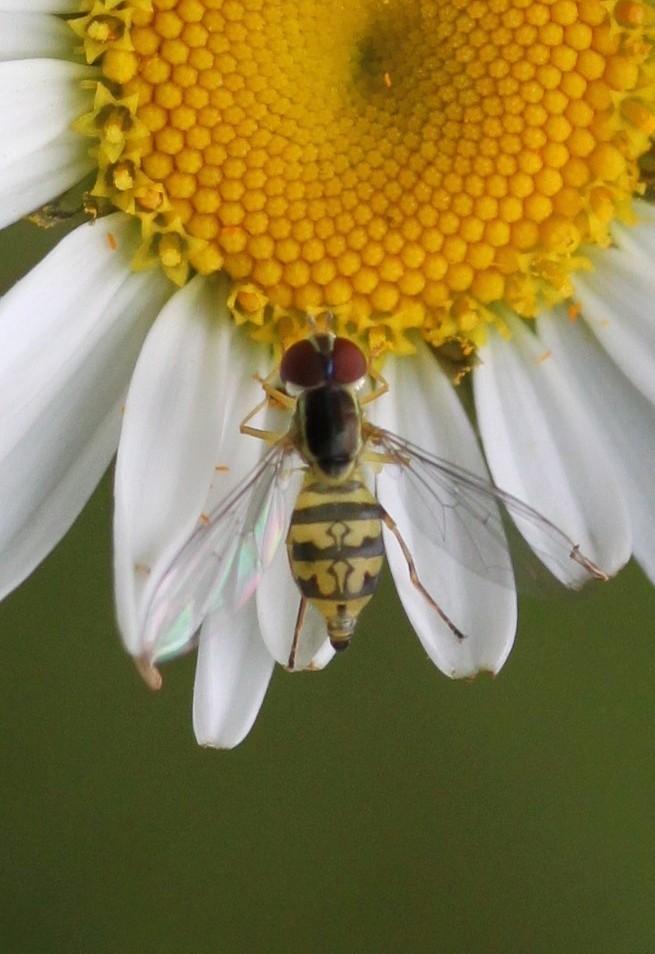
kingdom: Animalia
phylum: Arthropoda
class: Insecta
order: Diptera
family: Syrphidae
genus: Toxomerus
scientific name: Toxomerus geminatus
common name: Eastern calligrapher
